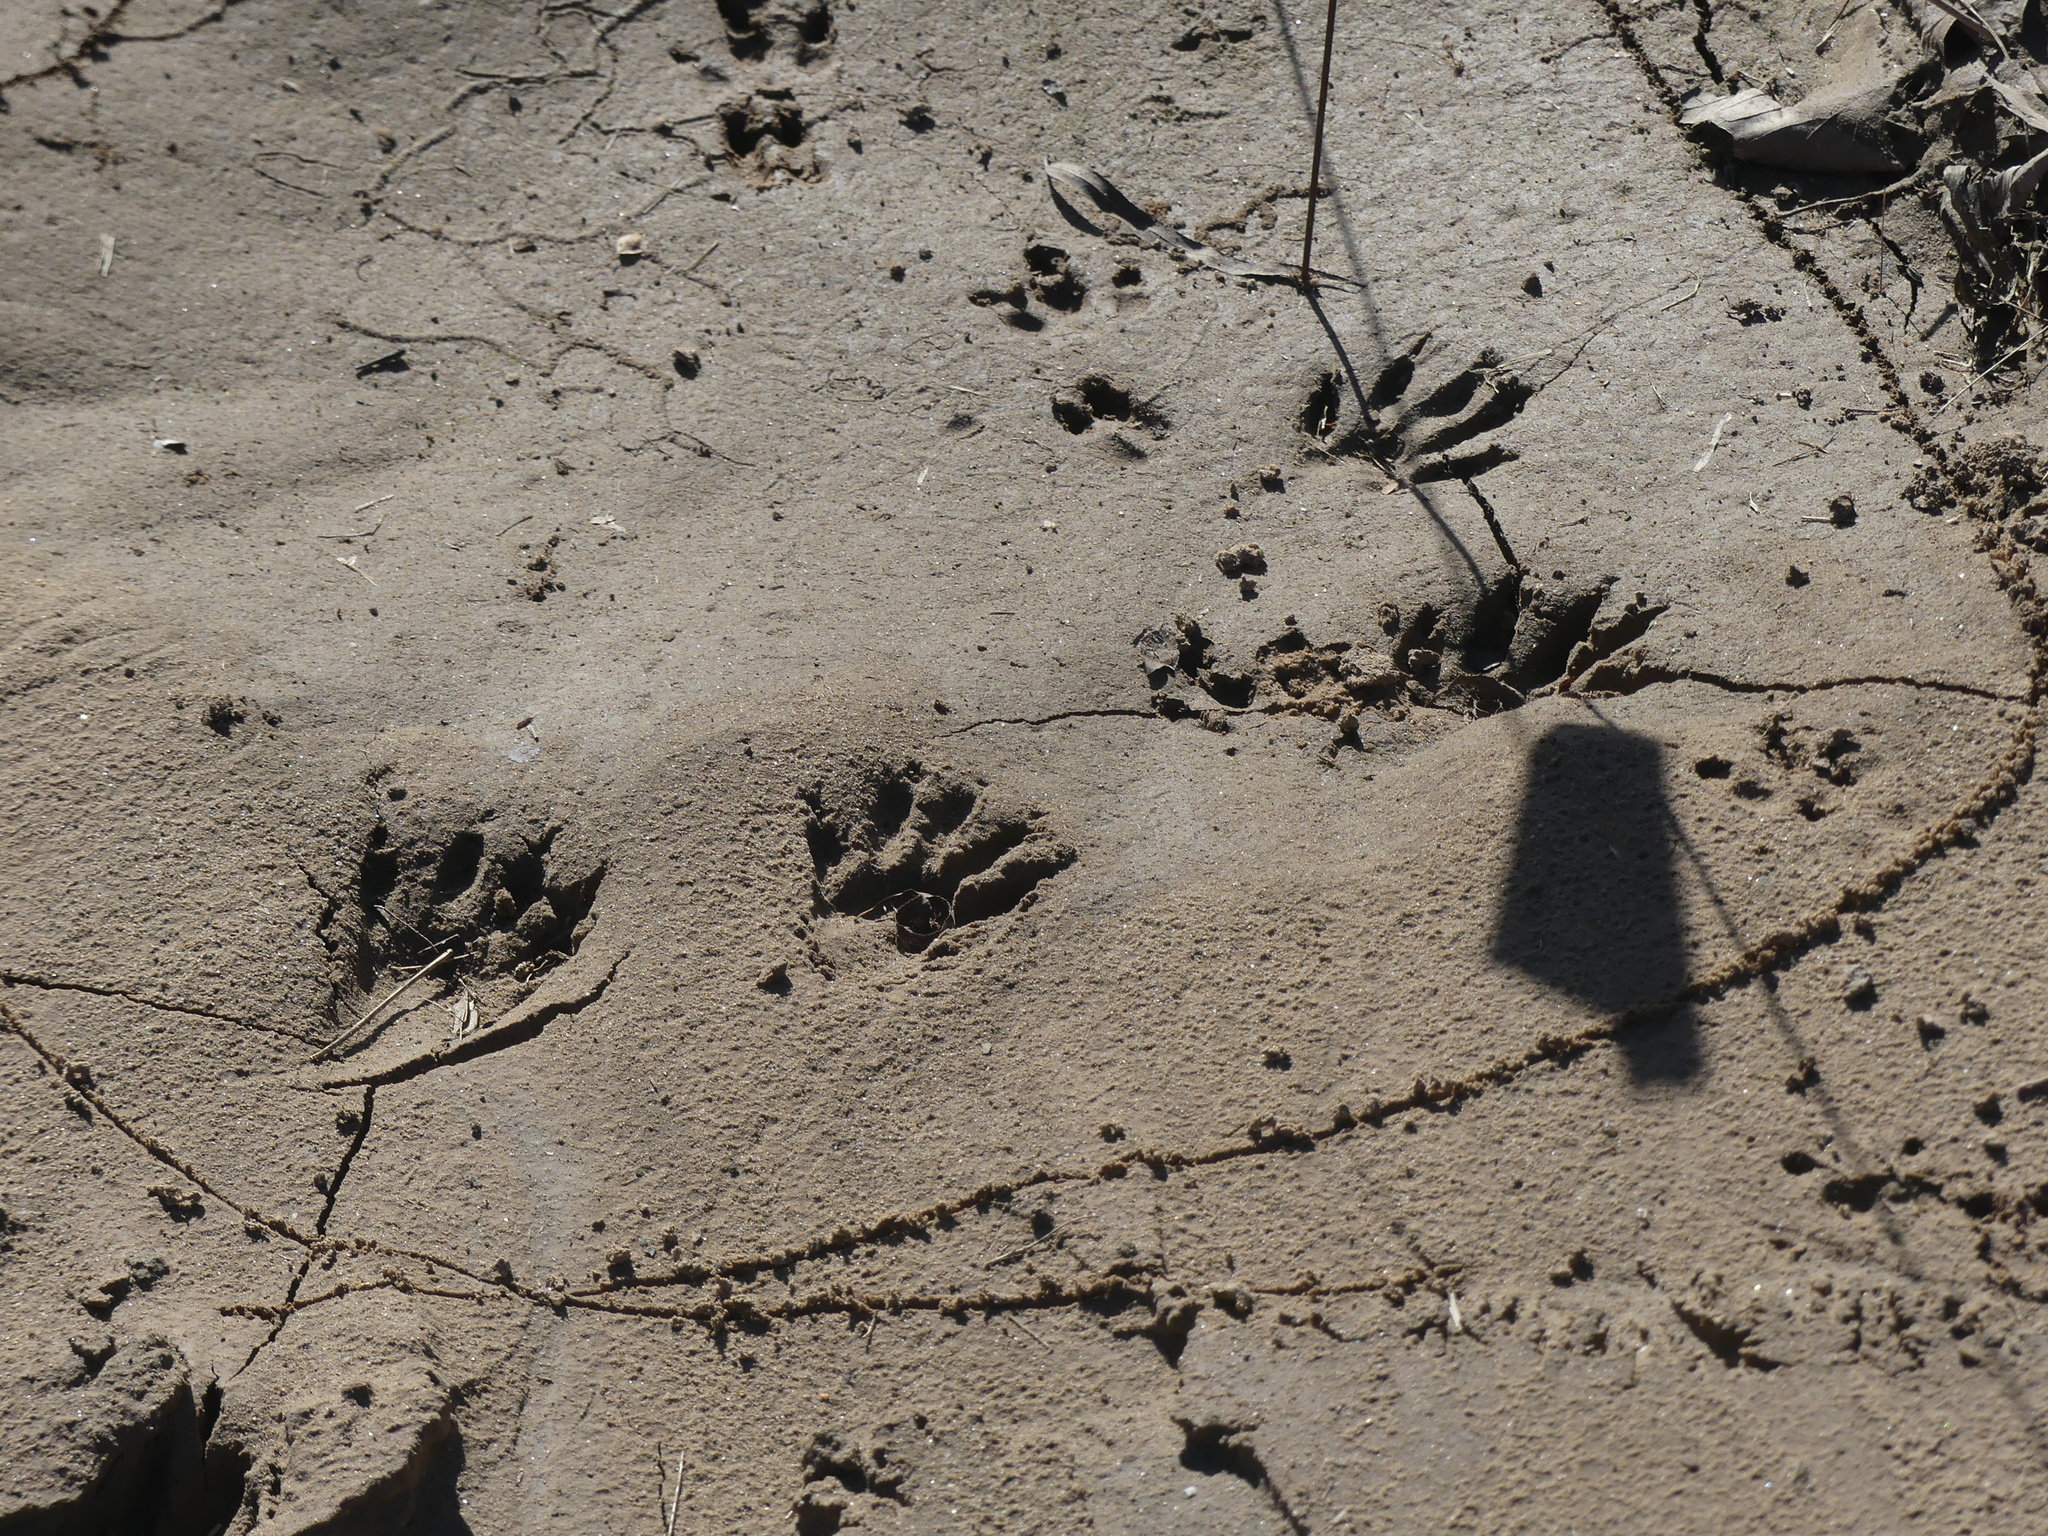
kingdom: Animalia
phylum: Chordata
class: Mammalia
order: Carnivora
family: Procyonidae
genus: Procyon
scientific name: Procyon lotor
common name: Raccoon
